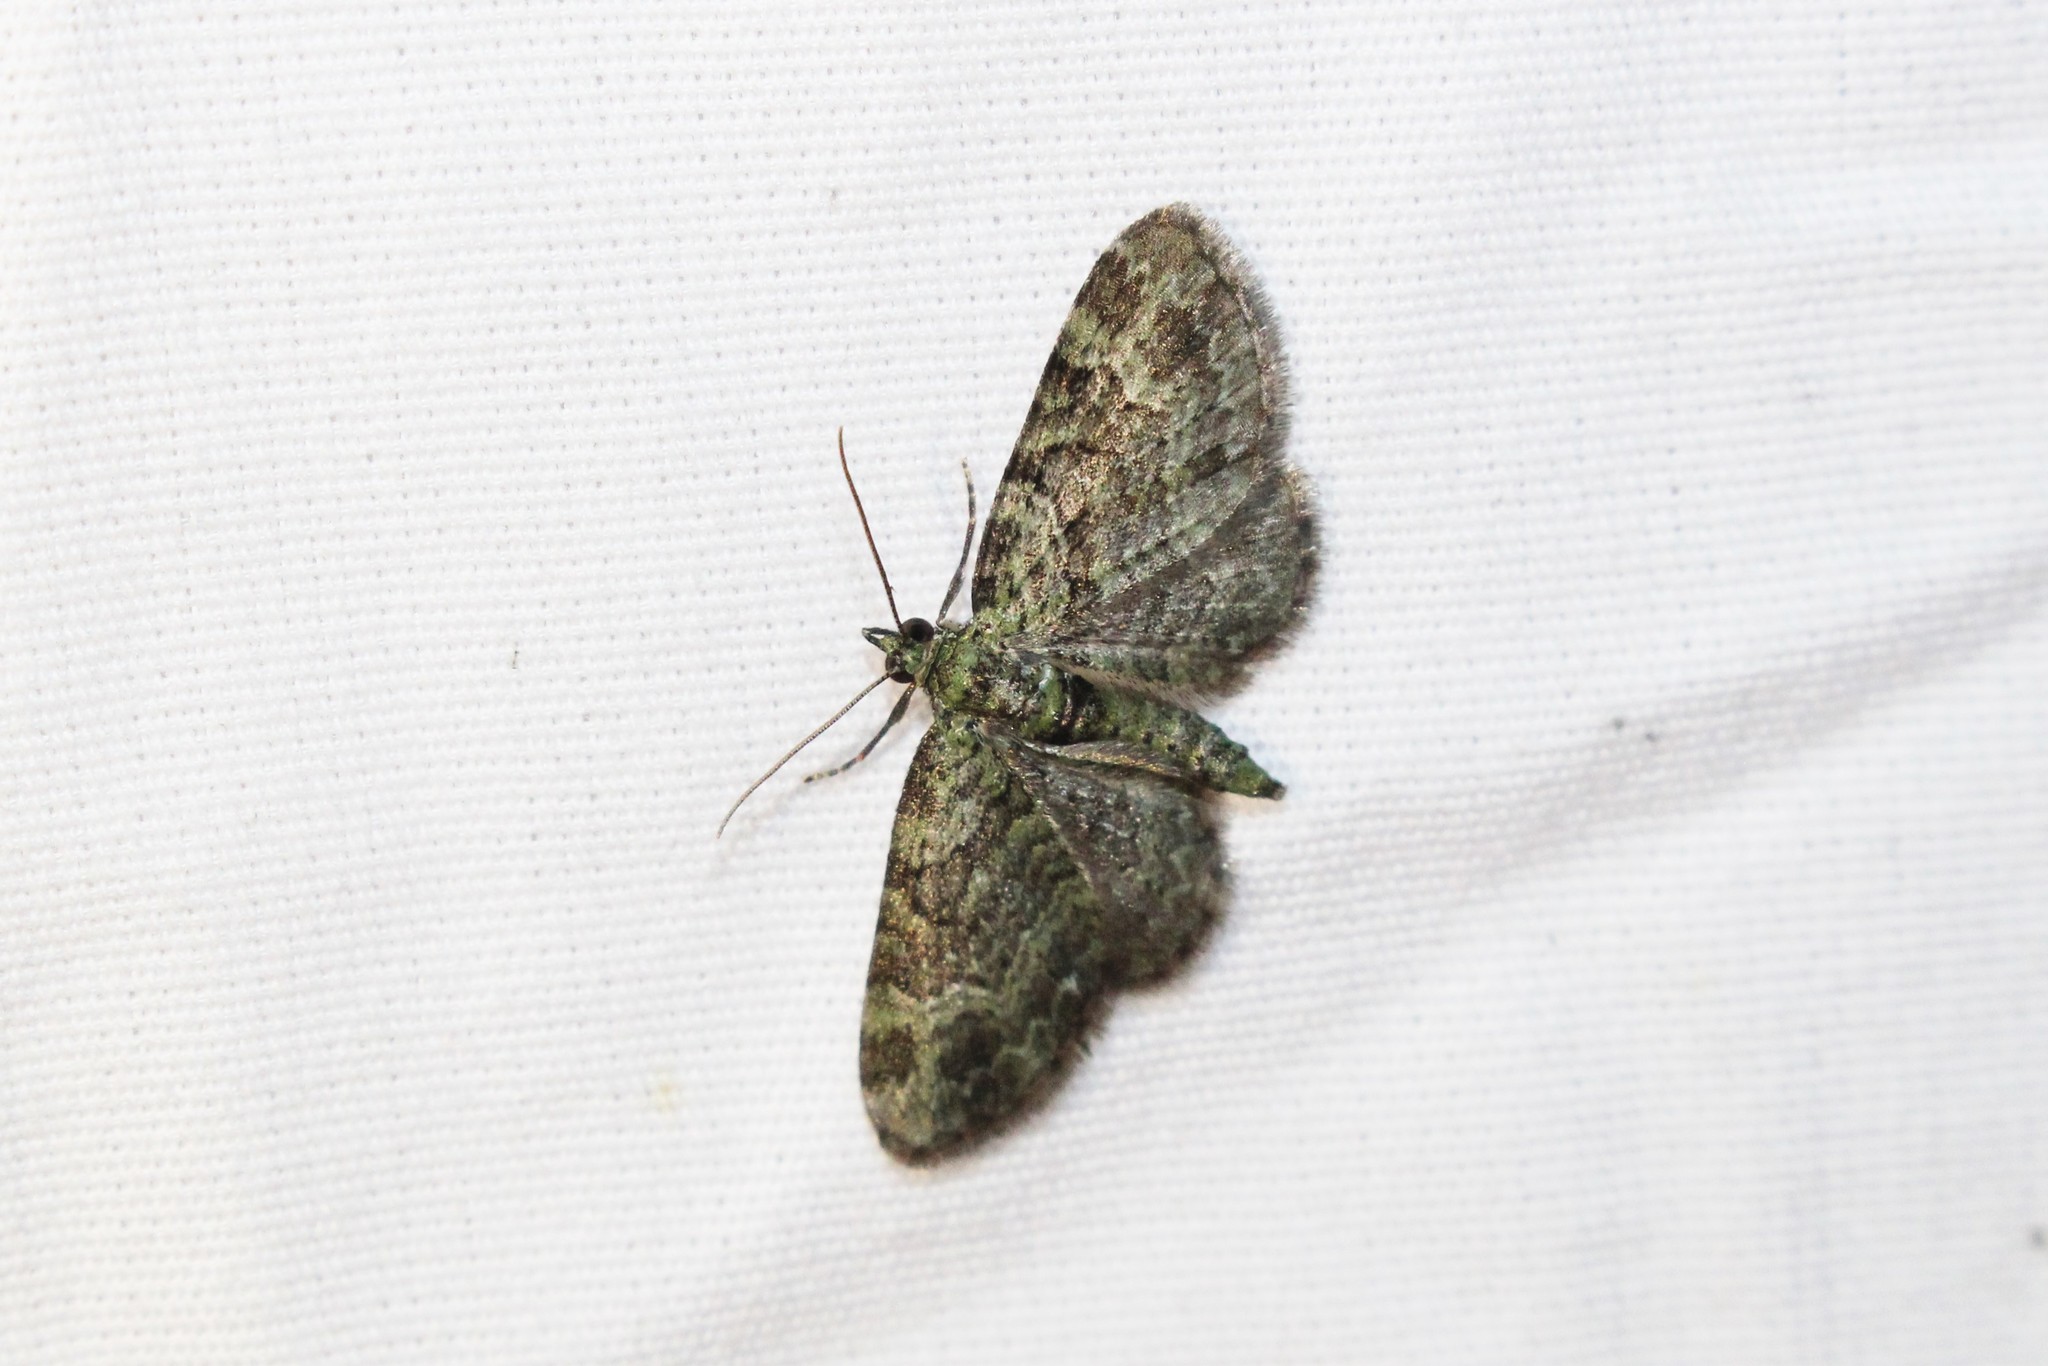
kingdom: Animalia
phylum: Arthropoda
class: Insecta
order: Lepidoptera
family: Geometridae
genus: Pasiphila
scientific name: Pasiphila rectangulata
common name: Green pug
